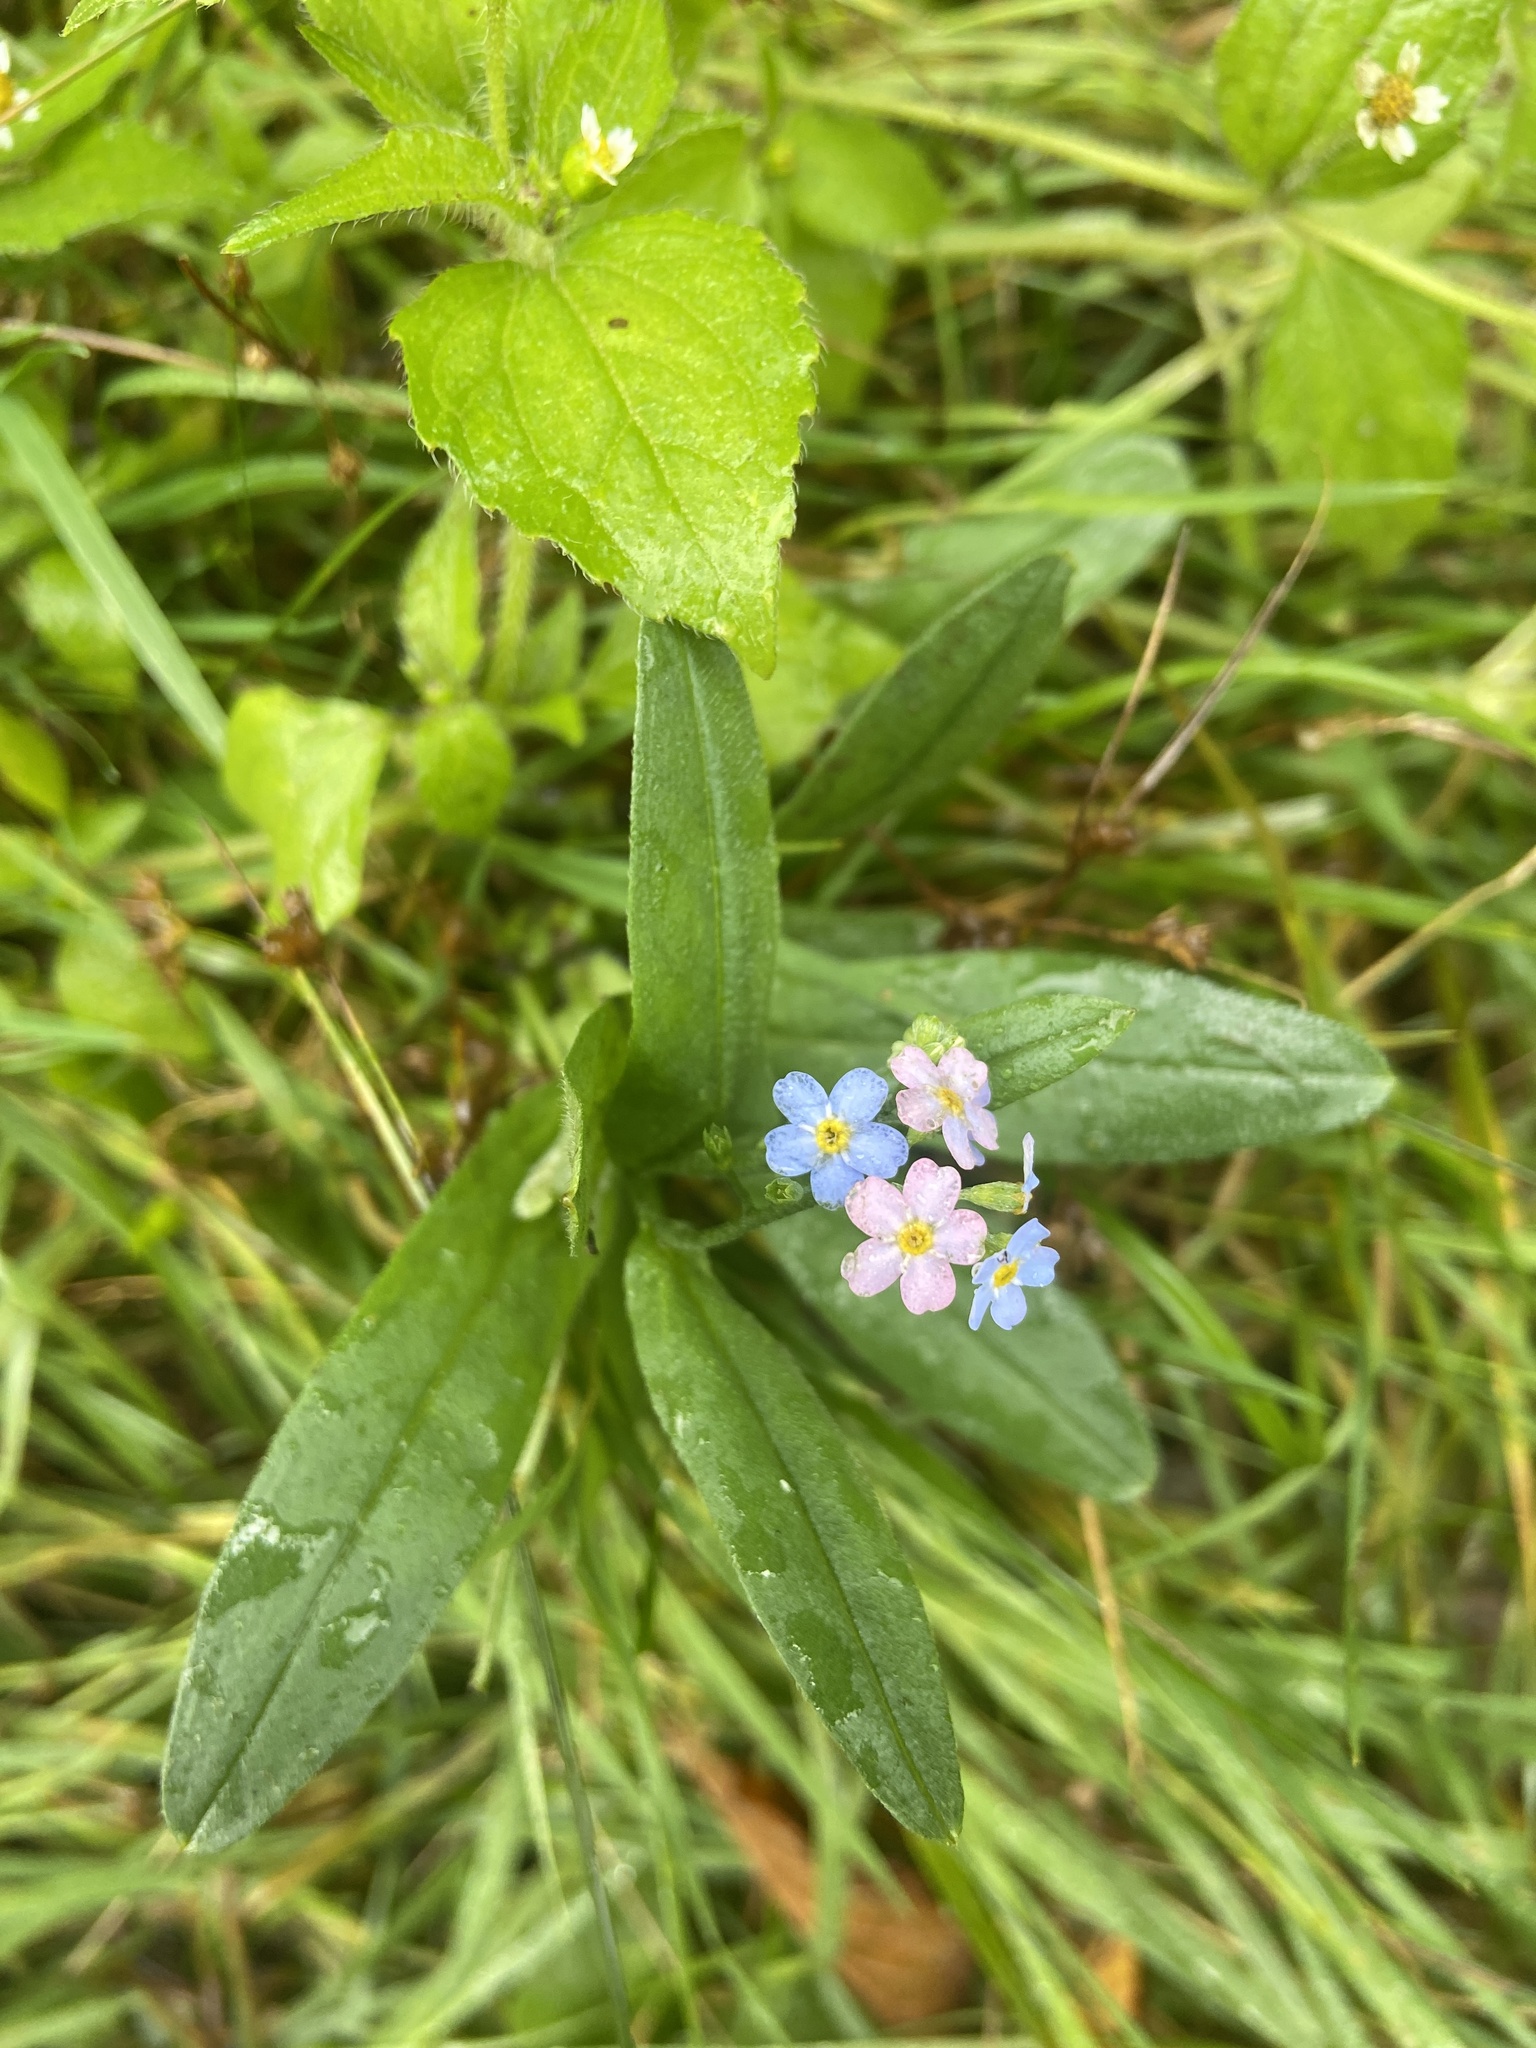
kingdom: Plantae
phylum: Tracheophyta
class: Magnoliopsida
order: Boraginales
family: Boraginaceae
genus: Myosotis
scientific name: Myosotis arvensis
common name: Field forget-me-not
